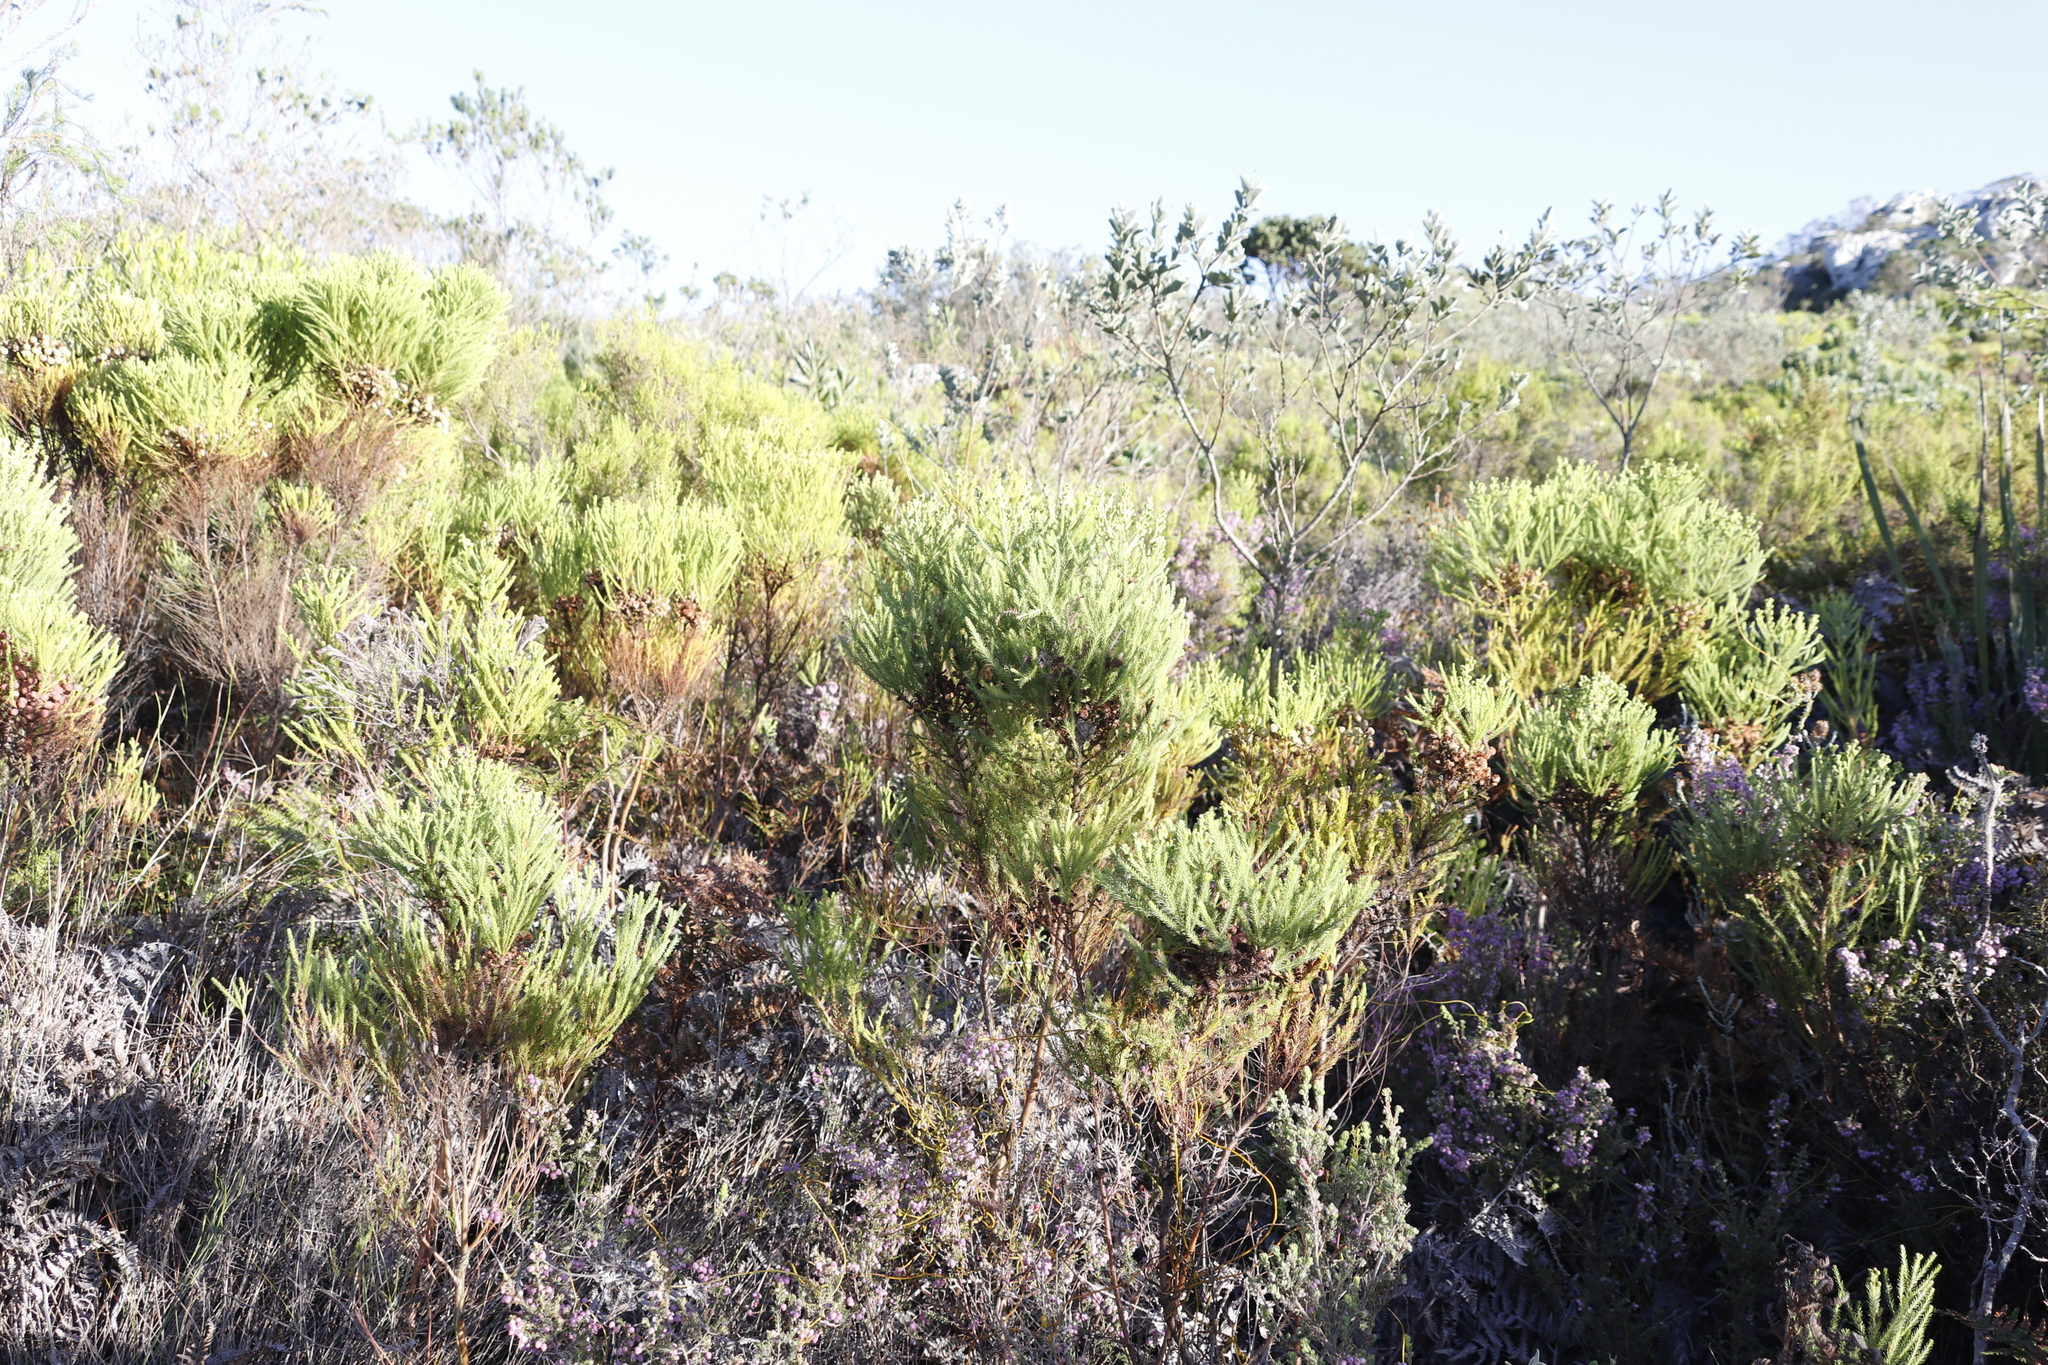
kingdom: Plantae
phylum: Tracheophyta
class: Magnoliopsida
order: Bruniales
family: Bruniaceae
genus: Berzelia
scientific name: Berzelia lanuginosa
